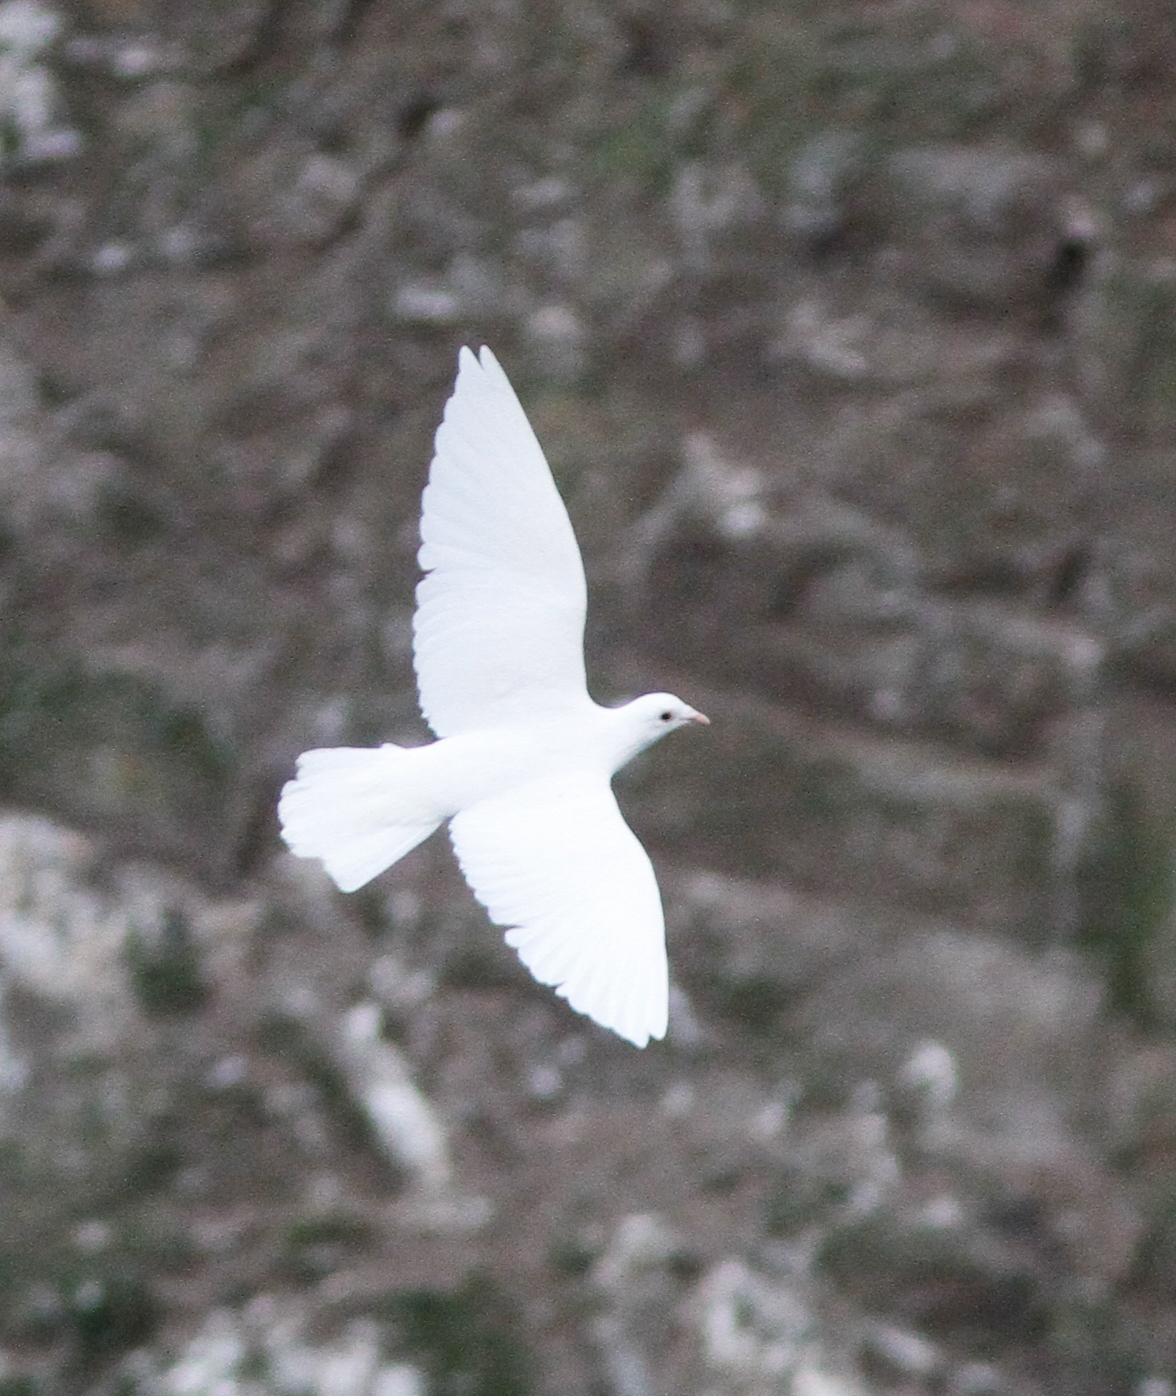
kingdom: Animalia
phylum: Chordata
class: Aves
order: Columbiformes
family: Columbidae
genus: Columba
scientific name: Columba livia
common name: Rock pigeon
